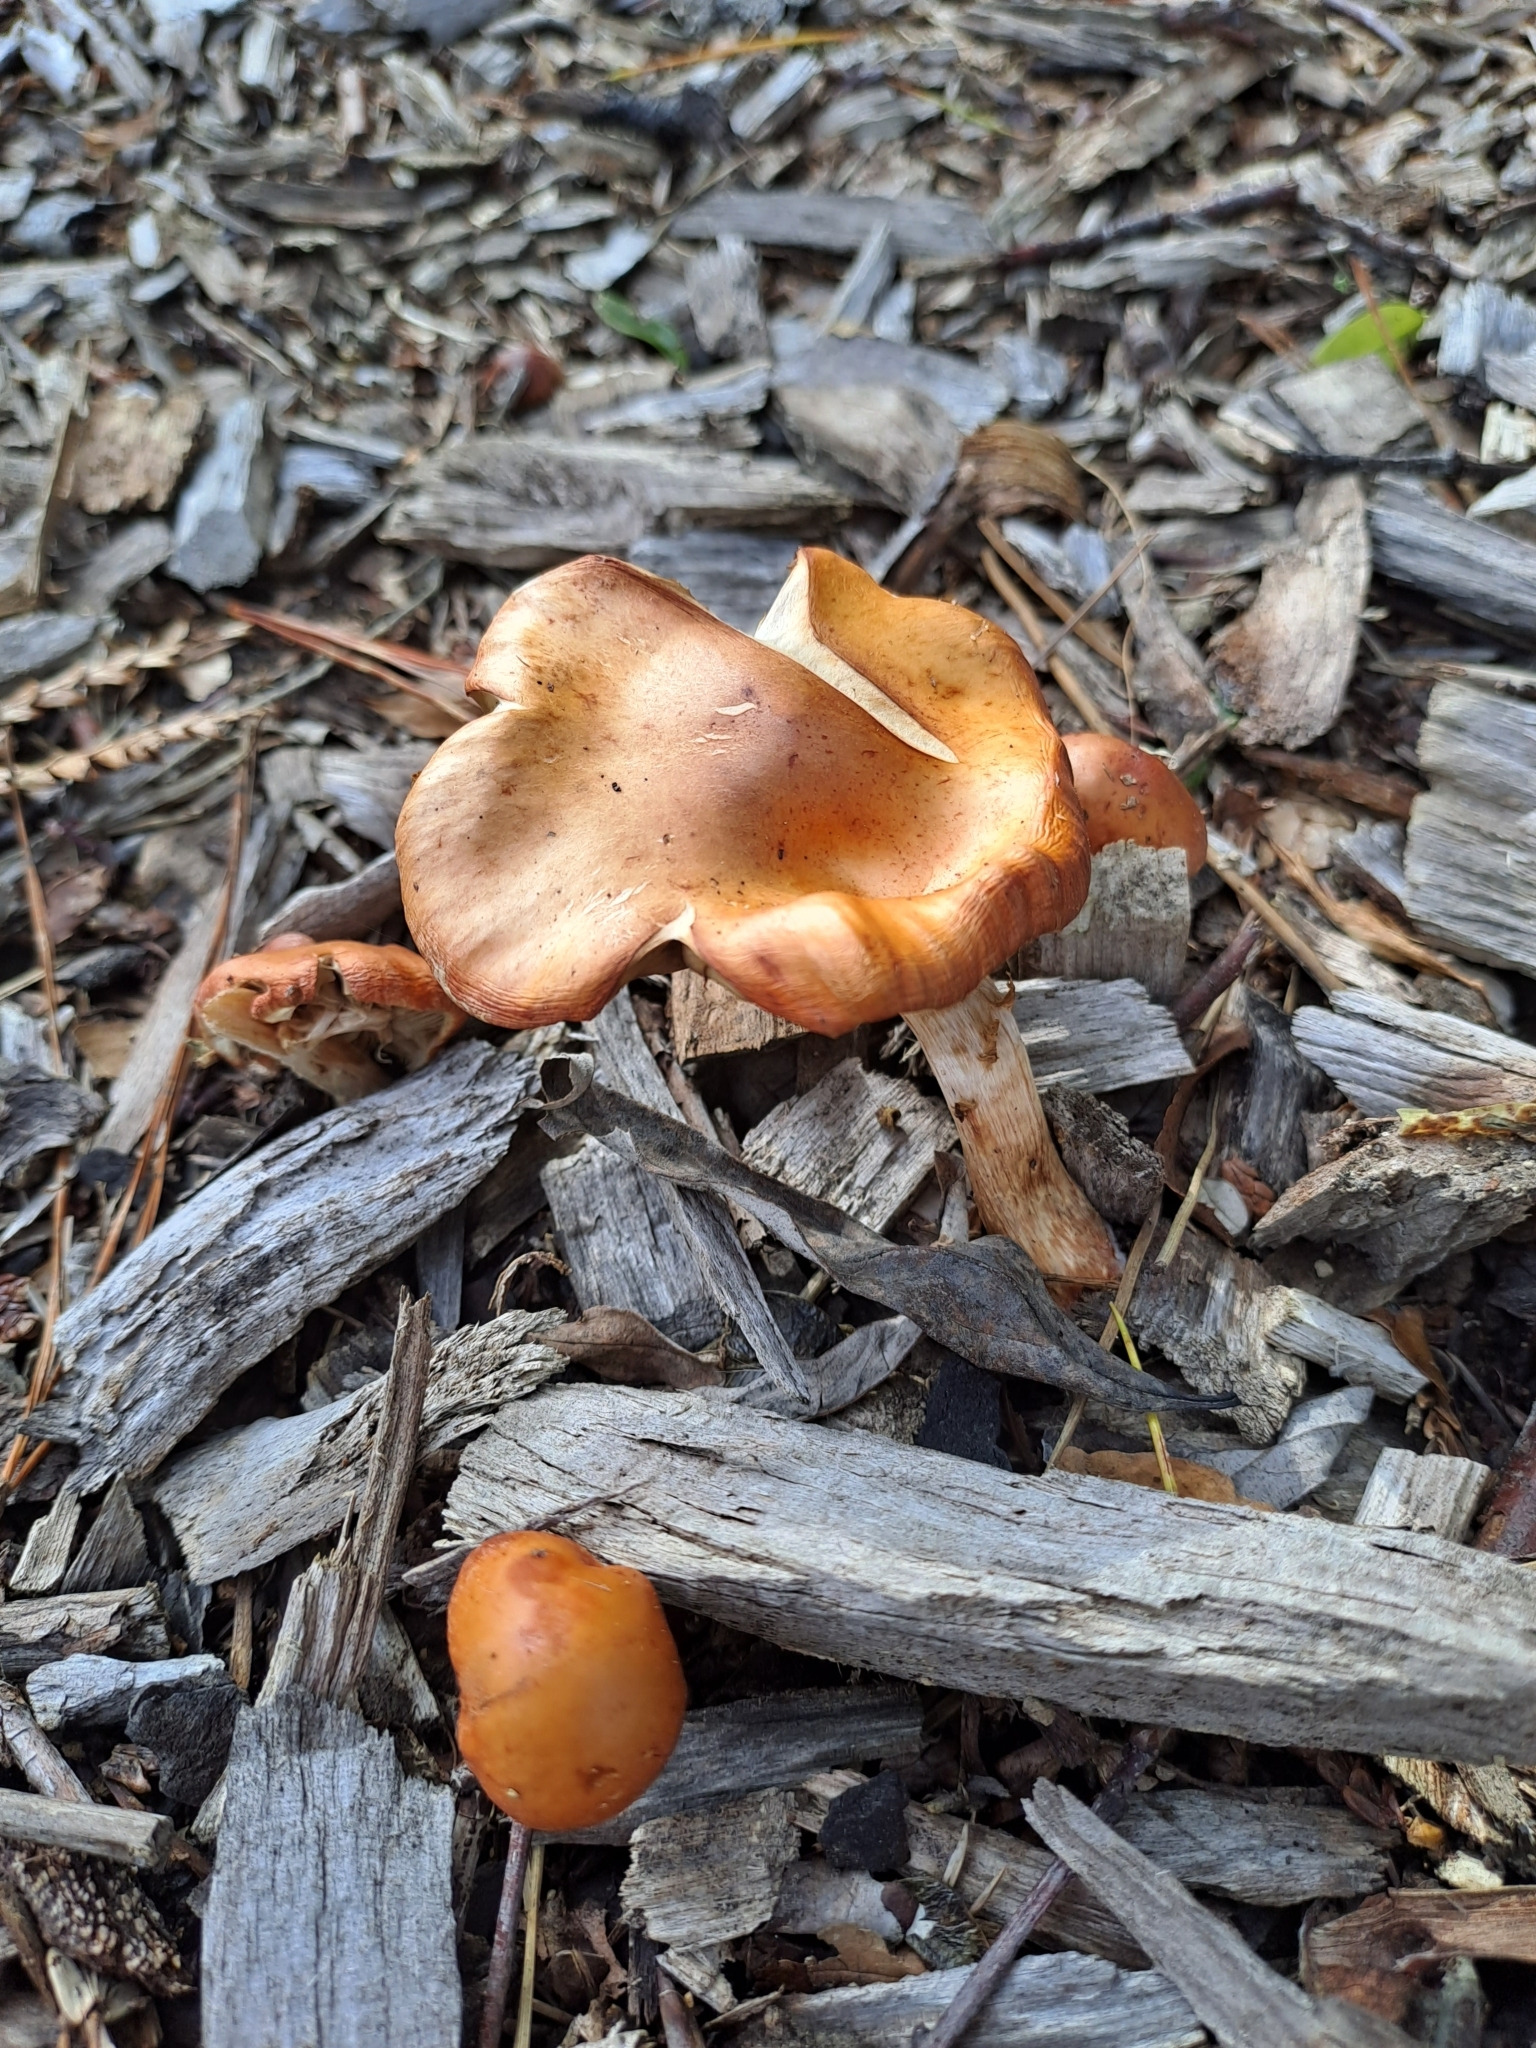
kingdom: Fungi
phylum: Basidiomycota
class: Agaricomycetes
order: Agaricales
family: Strophariaceae
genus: Leratiomyces
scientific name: Leratiomyces ceres
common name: Redlead roundhead
